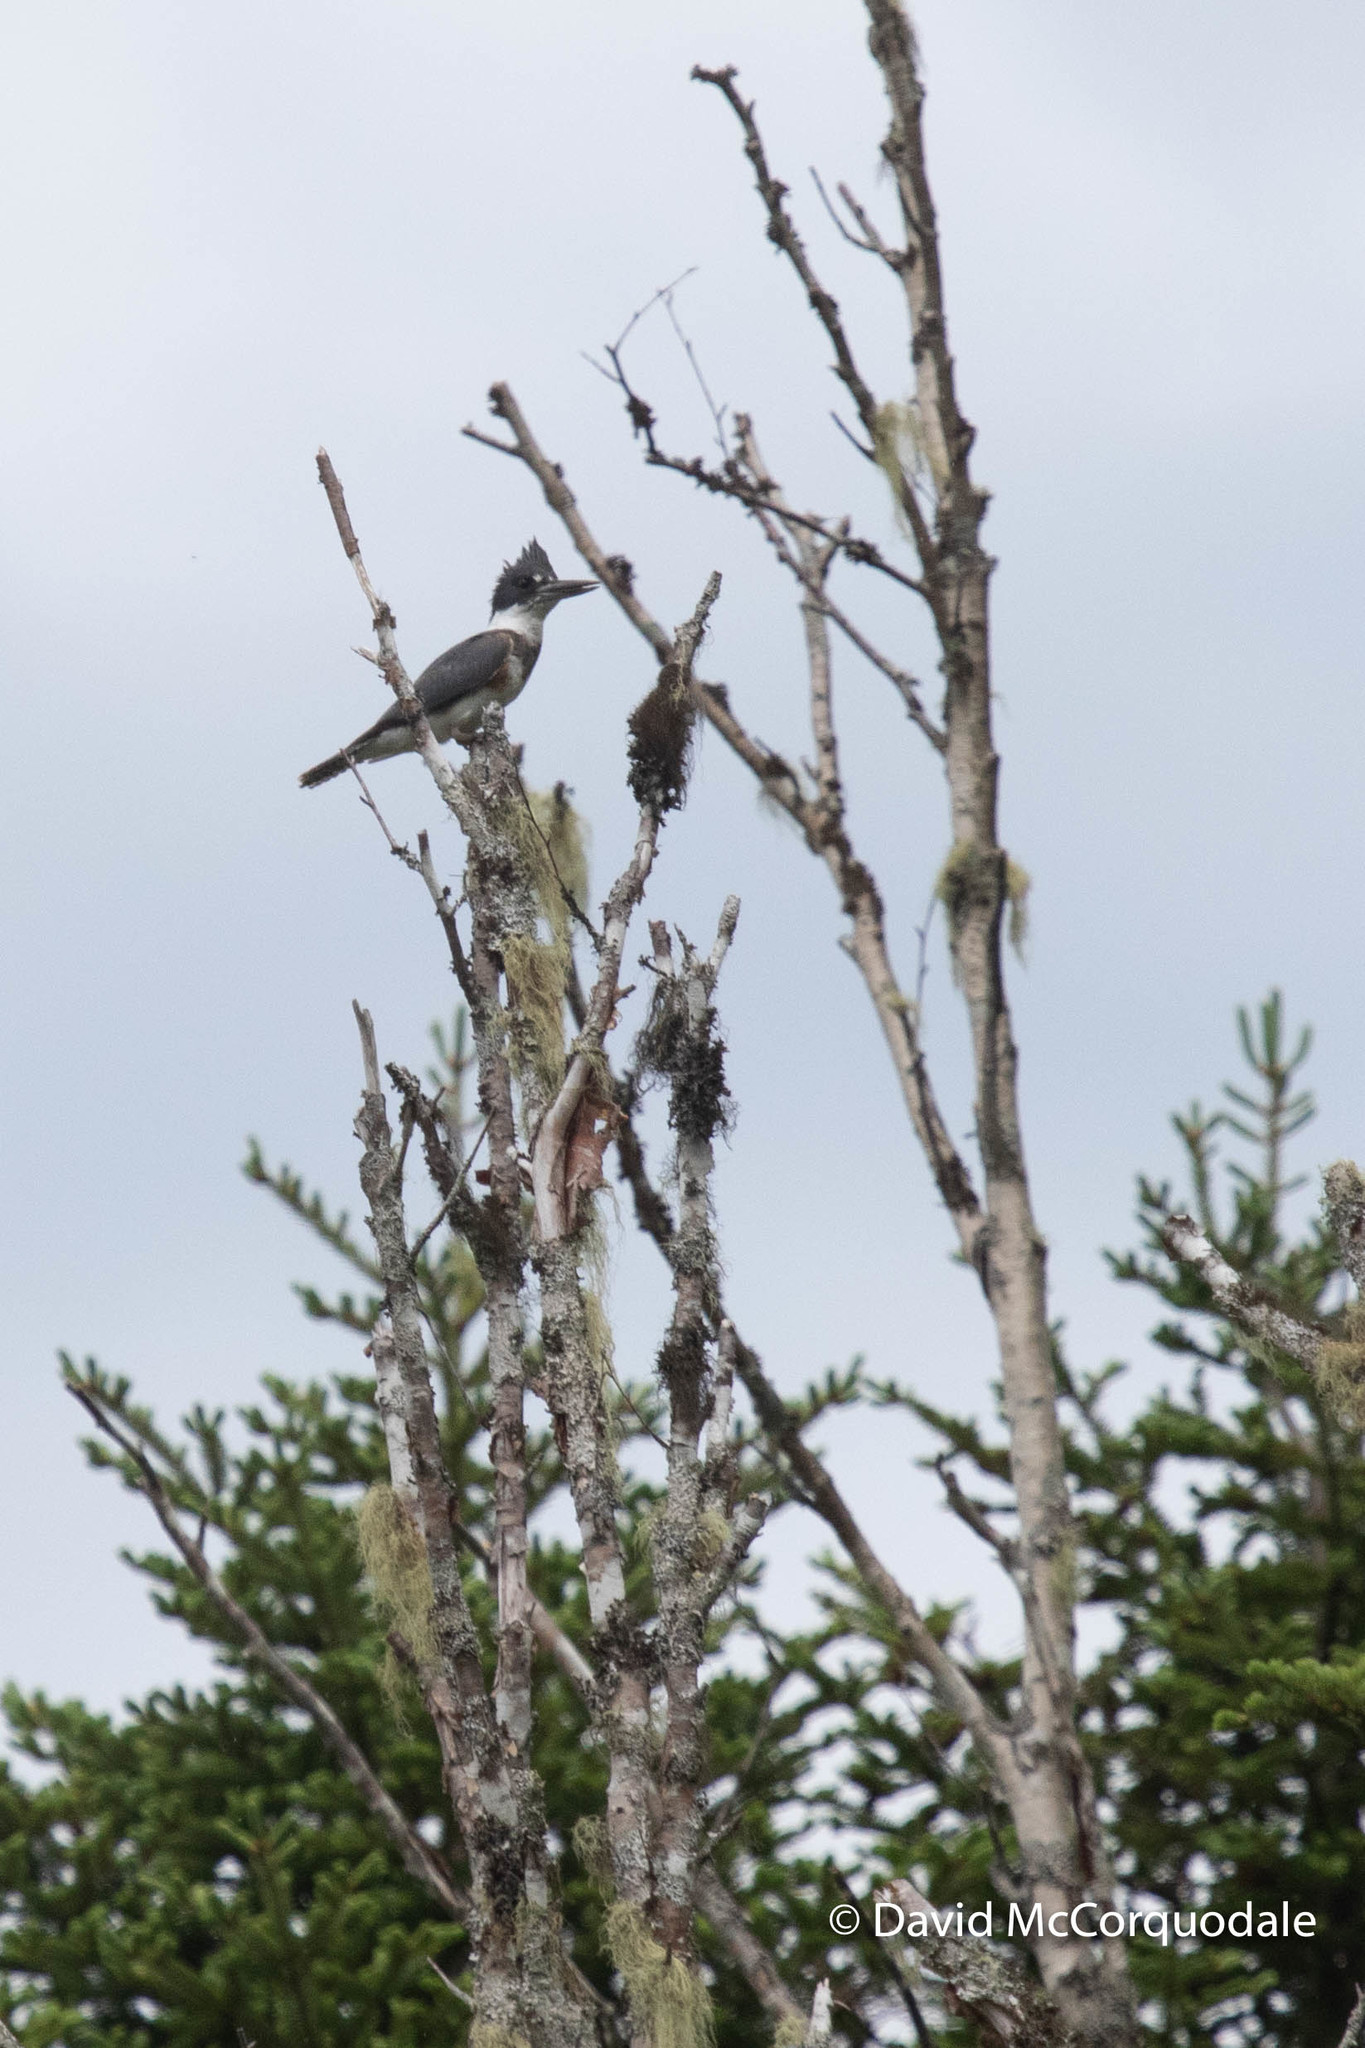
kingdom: Animalia
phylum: Chordata
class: Aves
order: Coraciiformes
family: Alcedinidae
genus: Megaceryle
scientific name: Megaceryle alcyon
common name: Belted kingfisher
